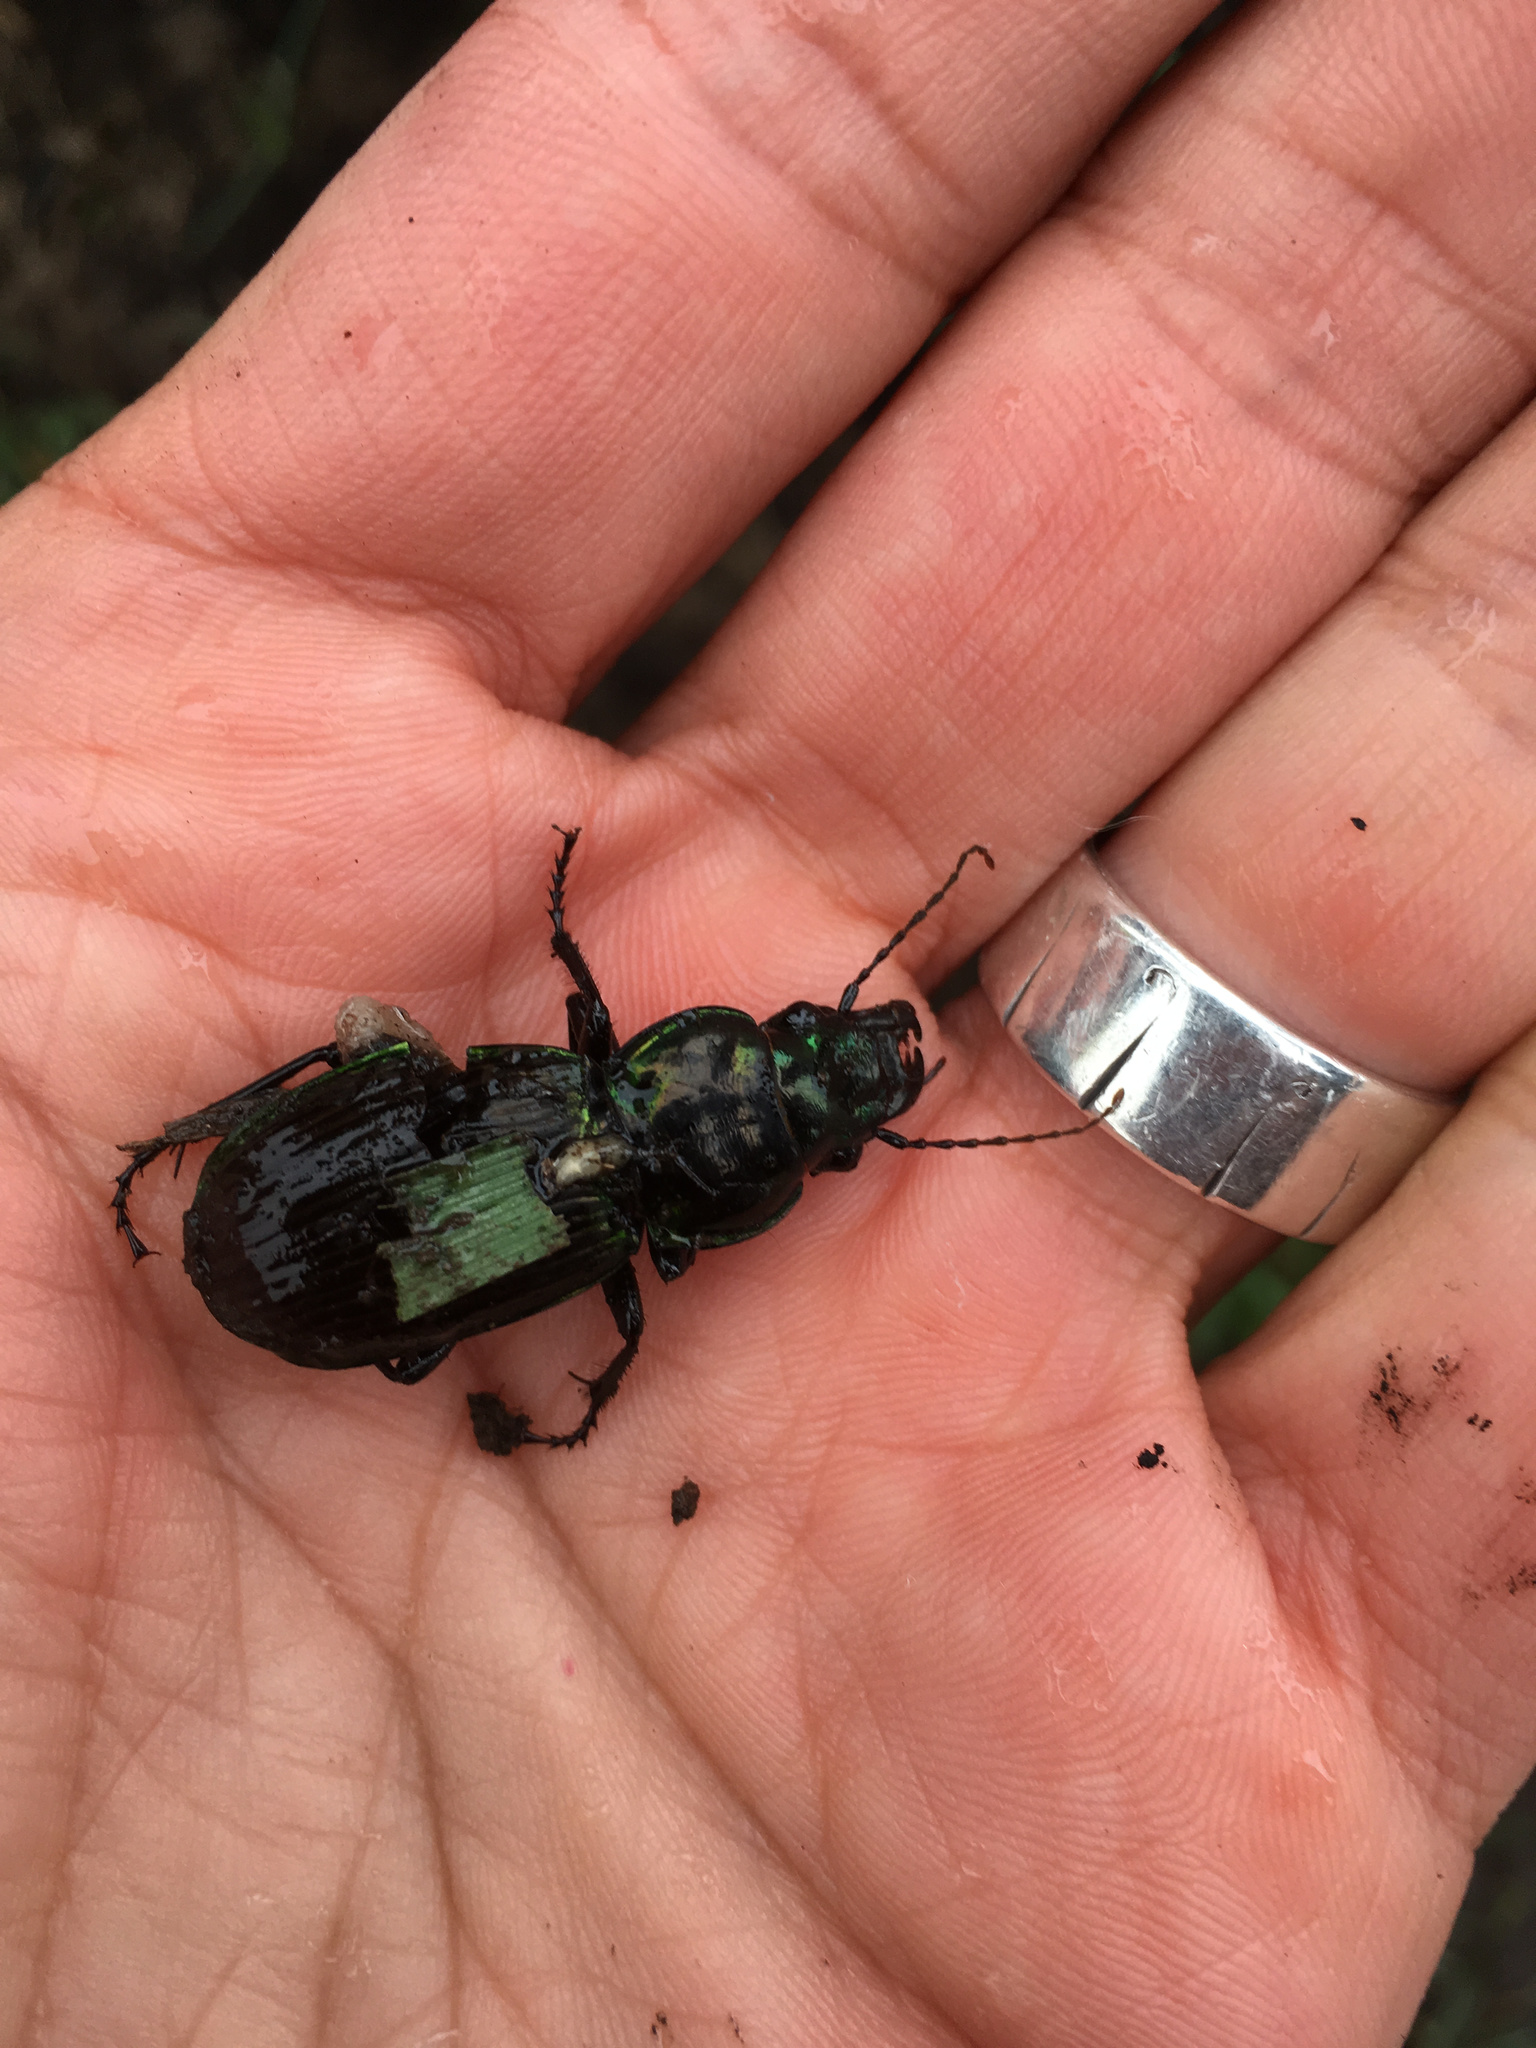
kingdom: Animalia
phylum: Arthropoda
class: Insecta
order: Coleoptera
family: Carabidae
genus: Megadromus
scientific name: Megadromus antarcticus
